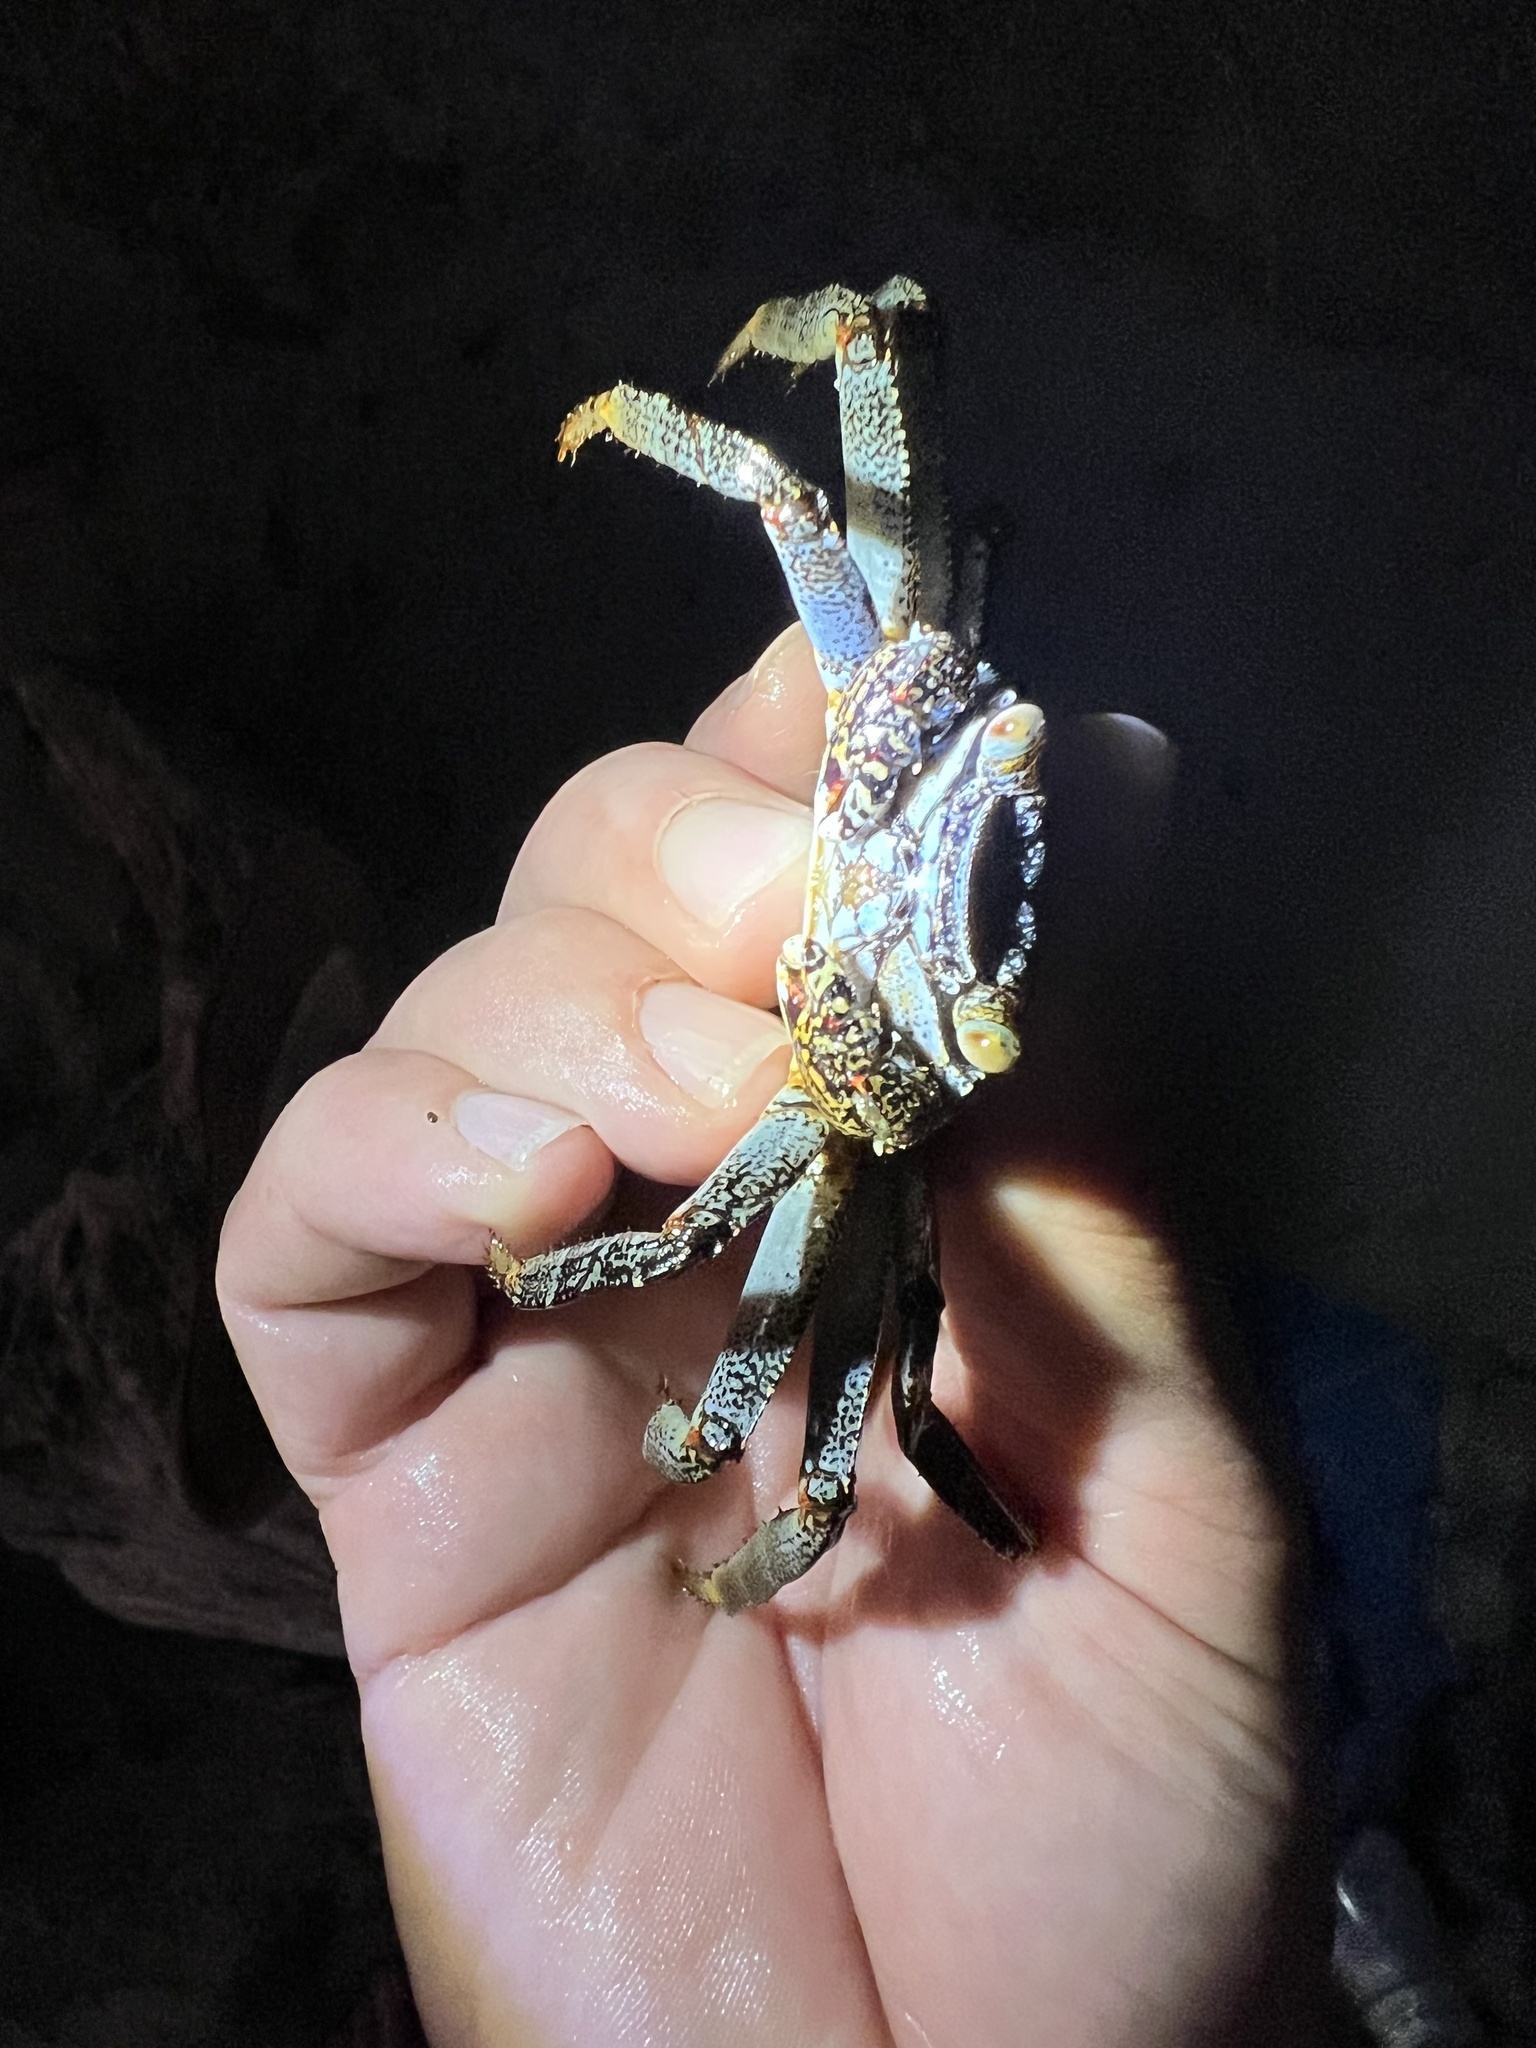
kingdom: Animalia
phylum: Arthropoda
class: Malacostraca
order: Decapoda
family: Grapsidae
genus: Grapsus
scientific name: Grapsus grapsus
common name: Sally lightfoot
